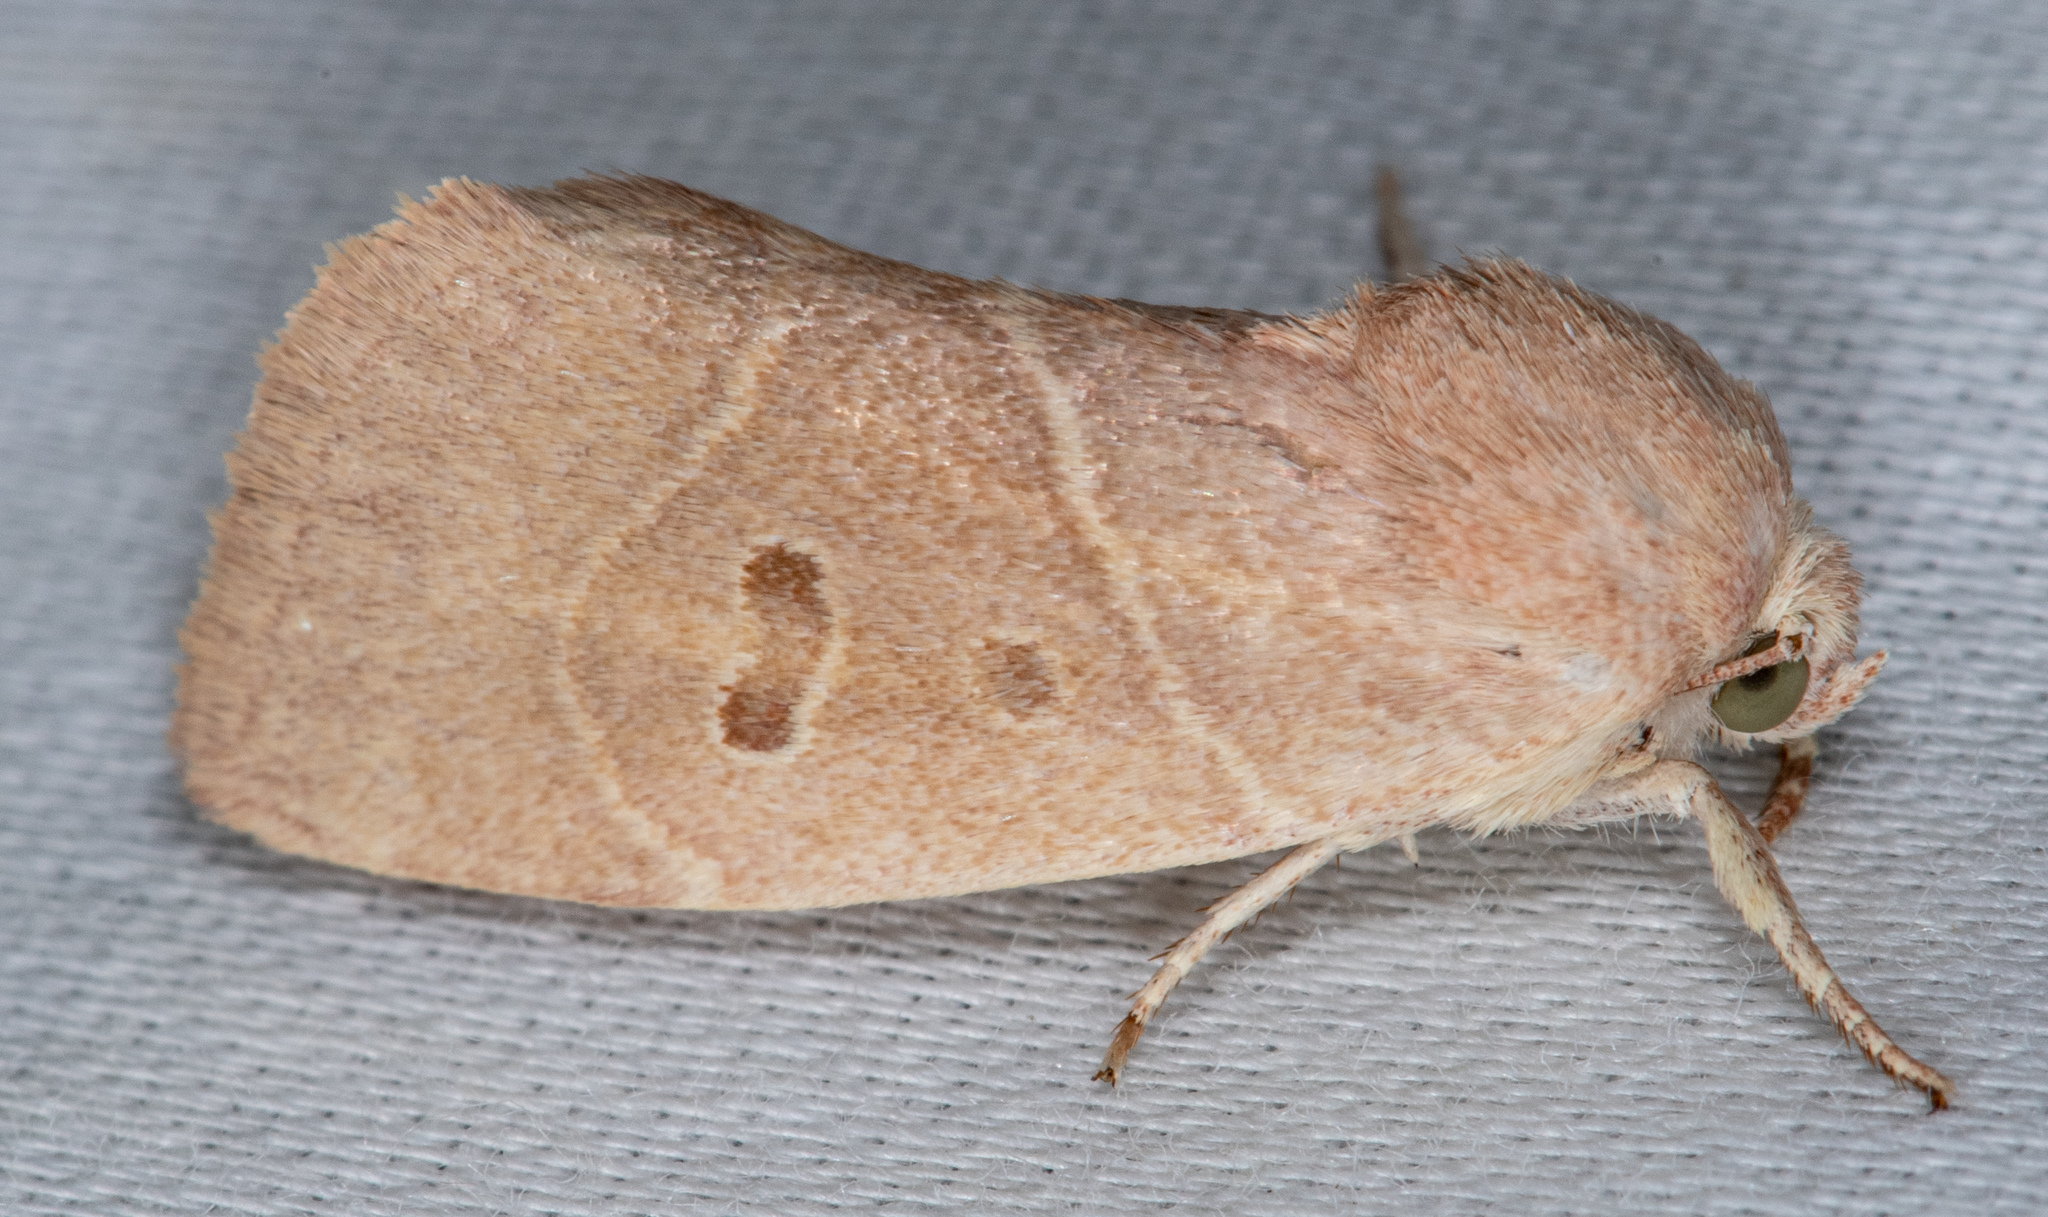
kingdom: Animalia
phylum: Arthropoda
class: Insecta
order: Lepidoptera
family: Noctuidae
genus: Cosmia
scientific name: Cosmia calami
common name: American dun-bar moth
